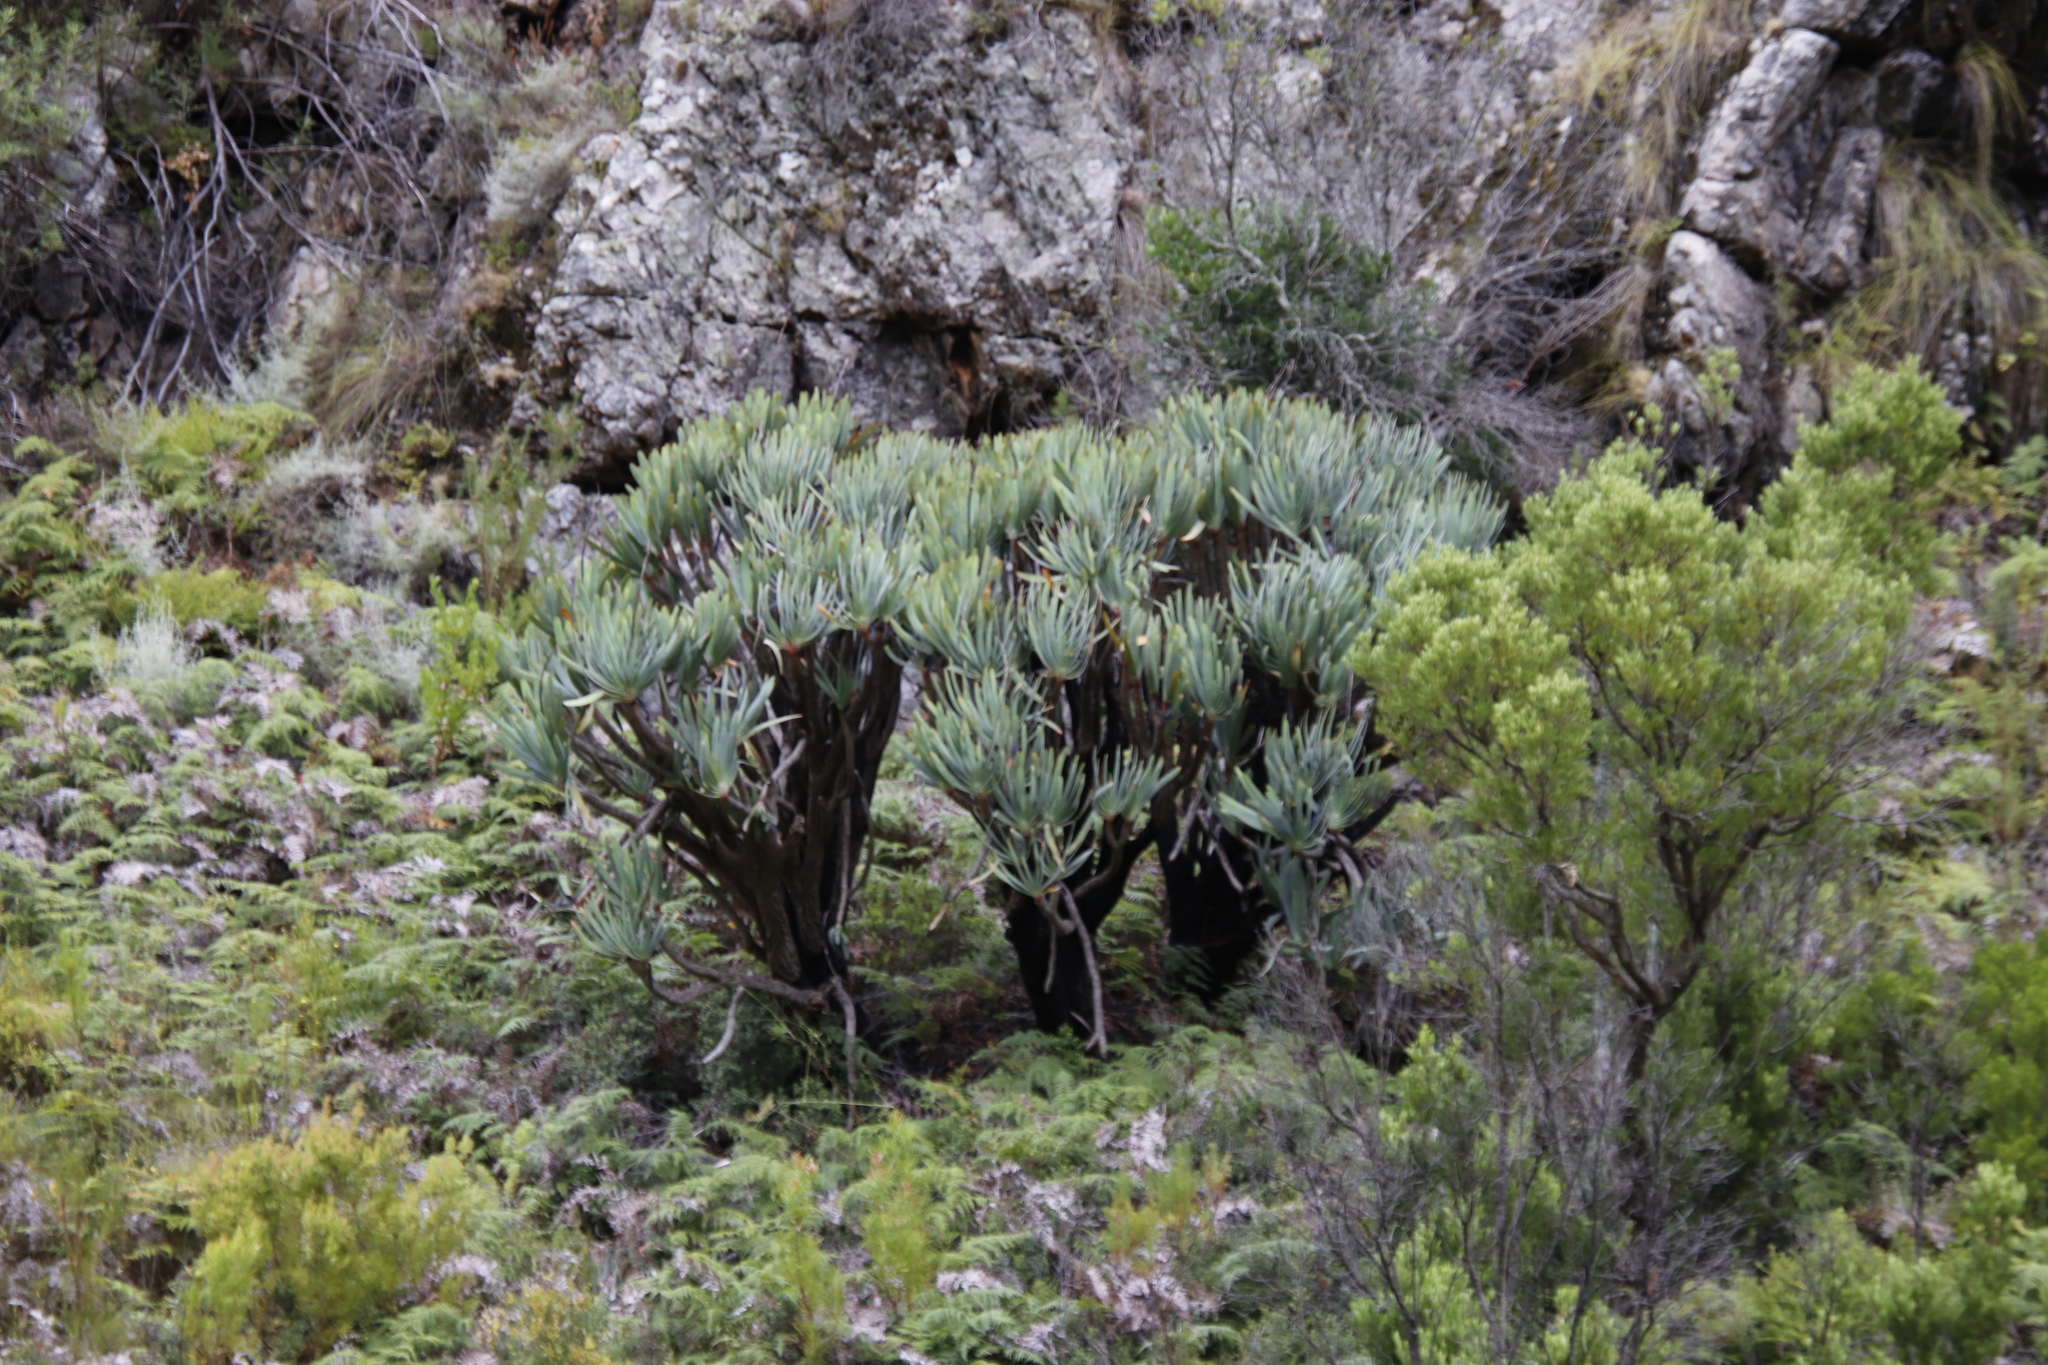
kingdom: Plantae
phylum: Tracheophyta
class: Liliopsida
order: Asparagales
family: Asphodelaceae
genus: Kumara
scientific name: Kumara plicatilis
